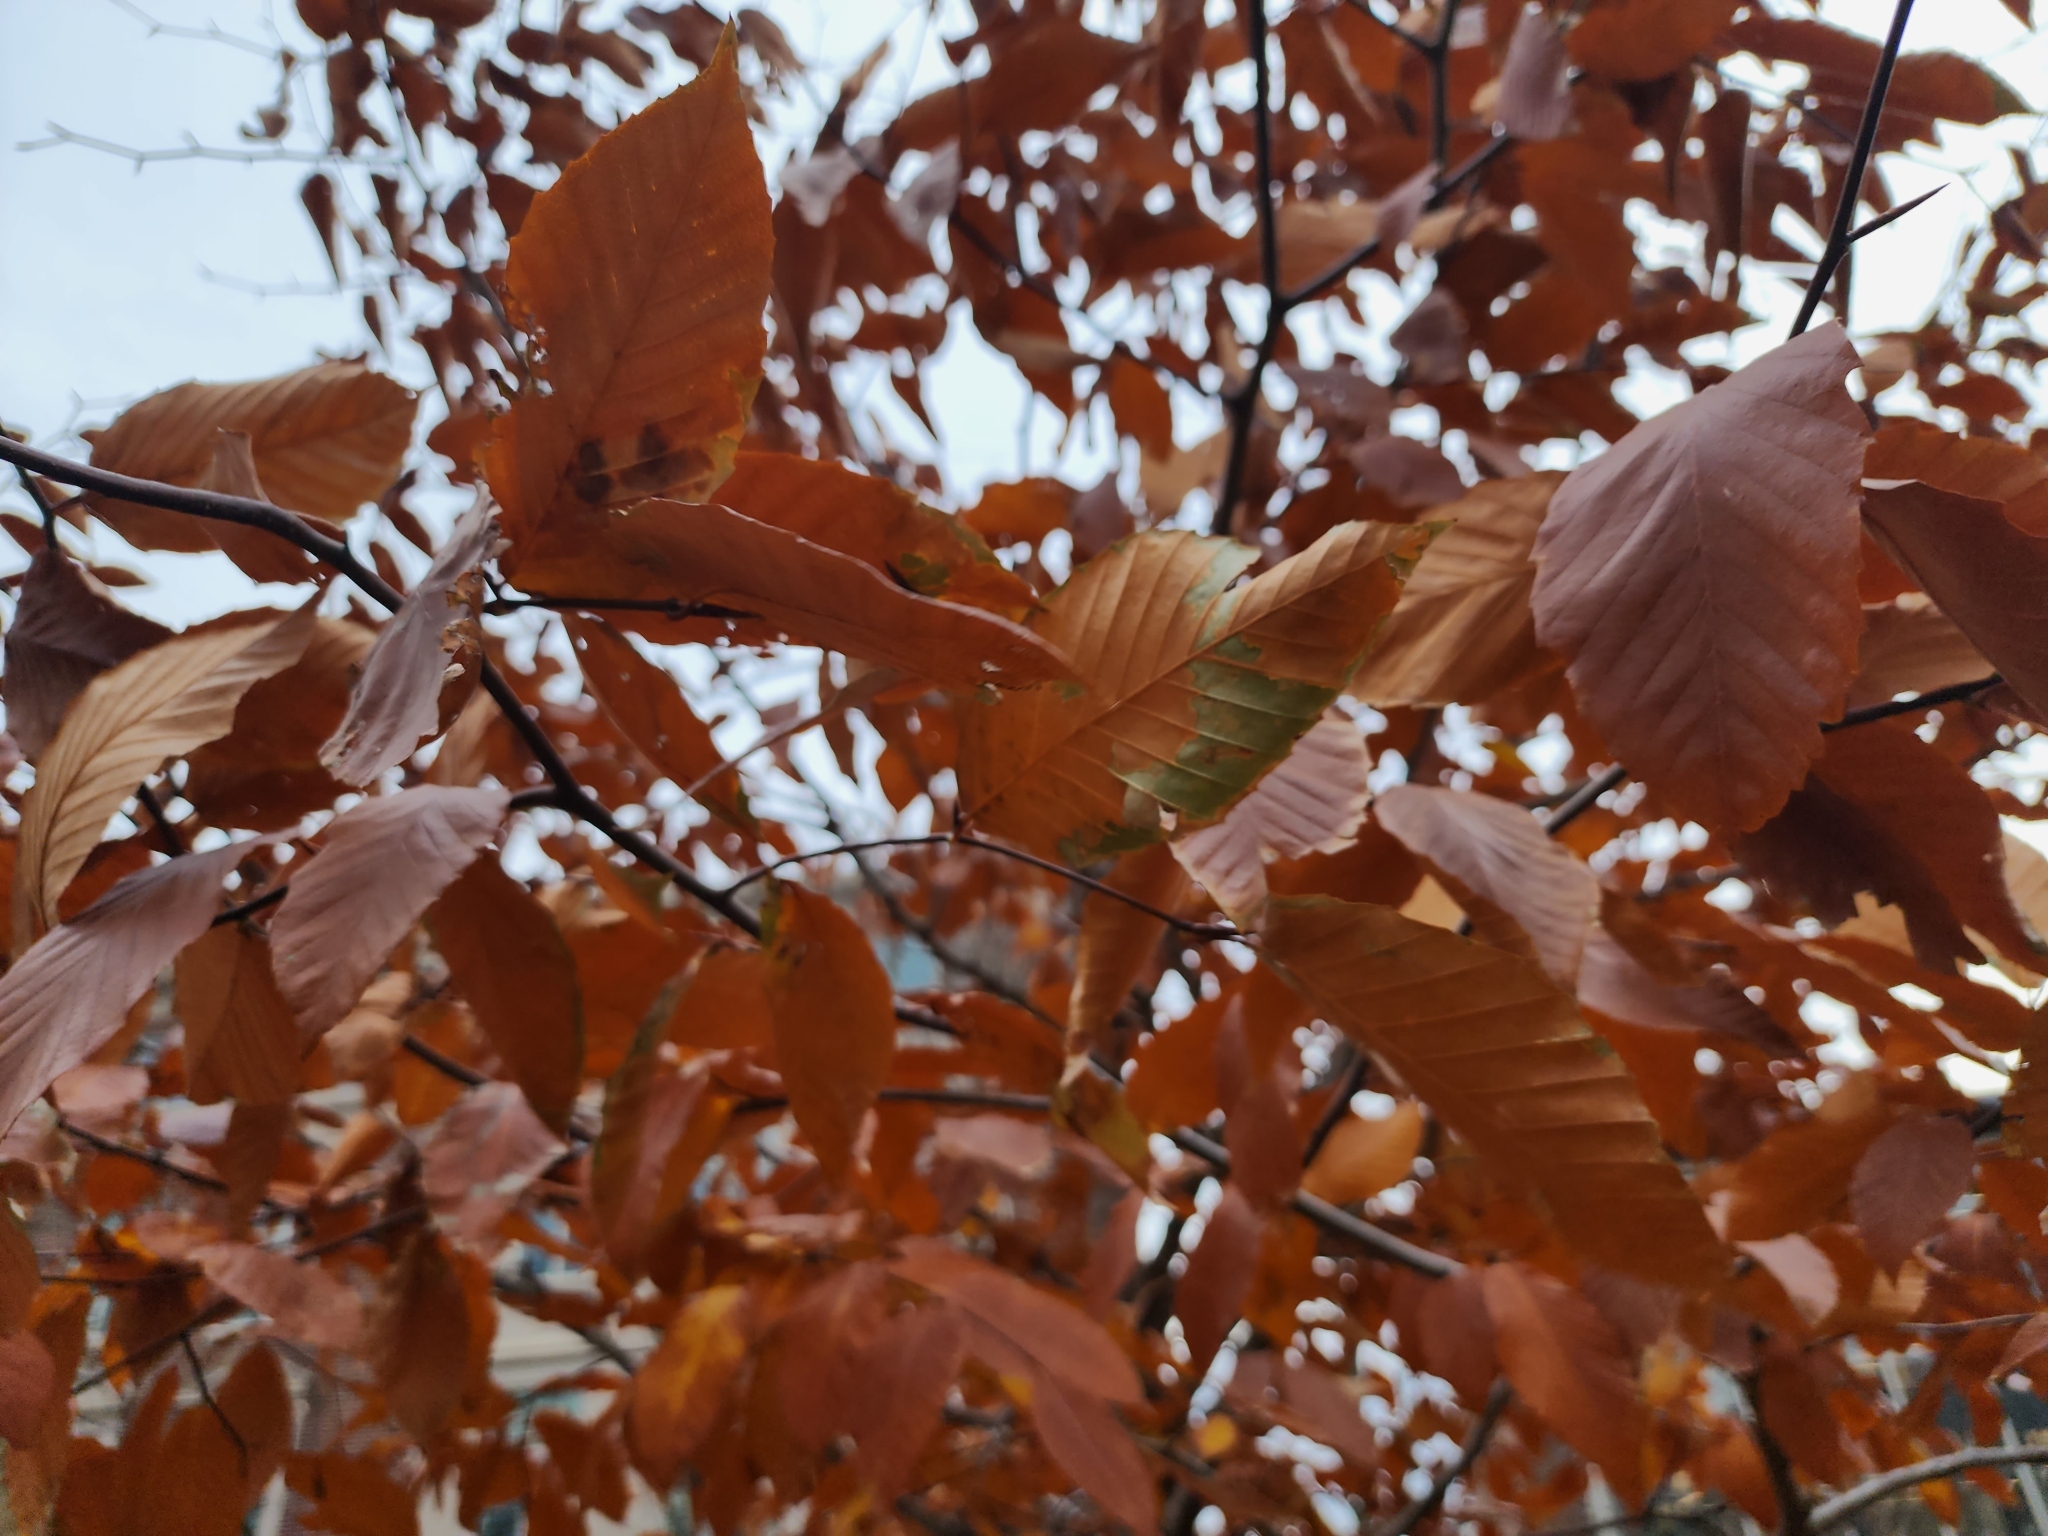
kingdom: Plantae
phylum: Tracheophyta
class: Magnoliopsida
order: Fagales
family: Fagaceae
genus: Fagus
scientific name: Fagus grandifolia
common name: American beech
